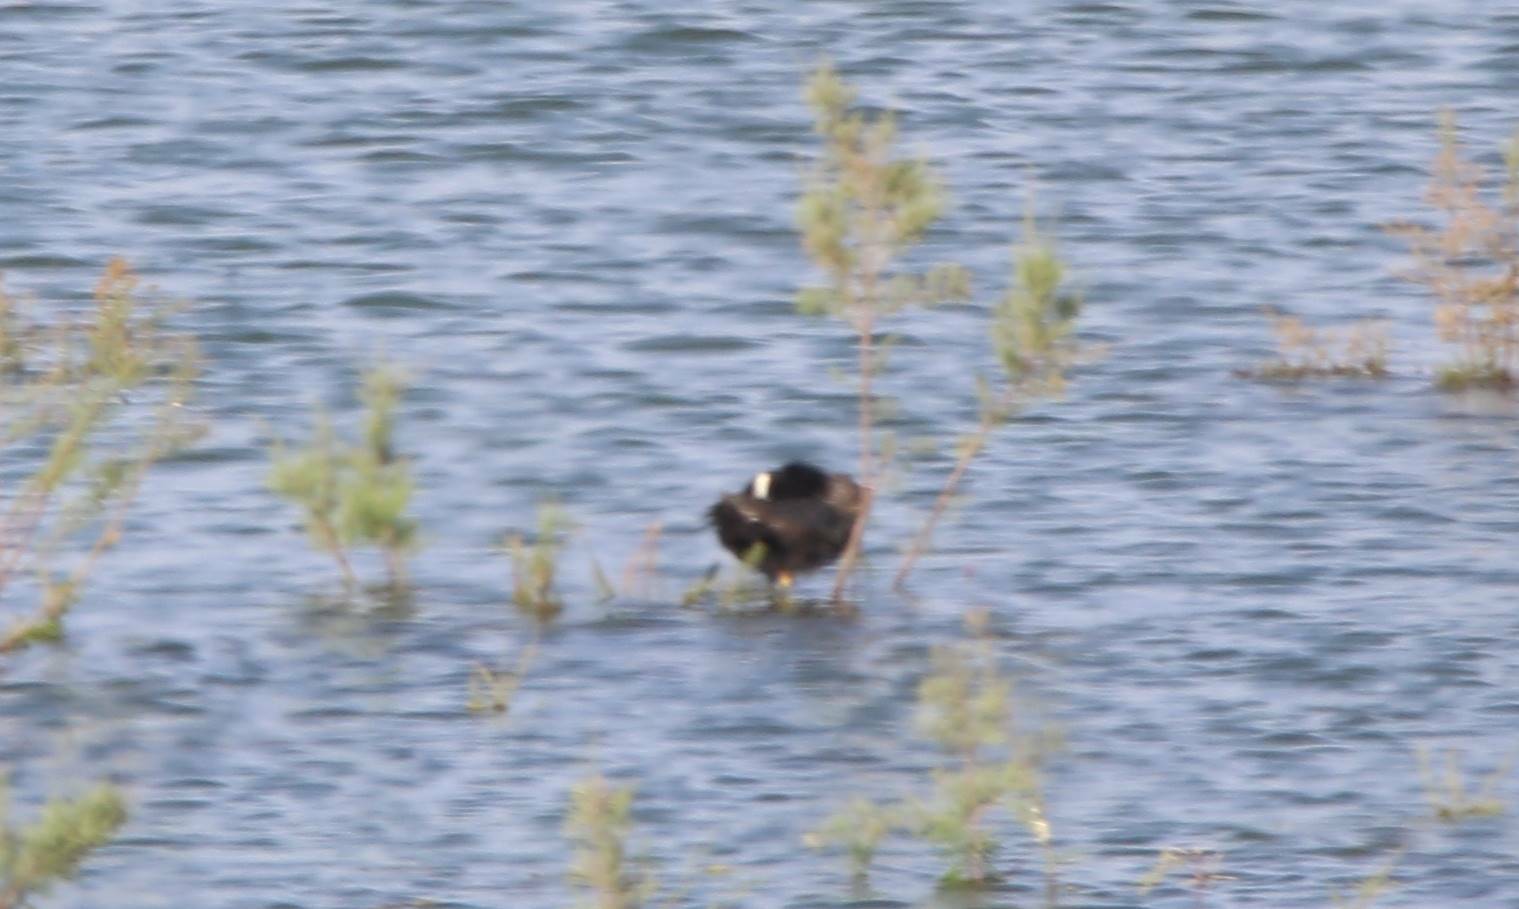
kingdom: Animalia
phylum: Chordata
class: Aves
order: Gruiformes
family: Rallidae
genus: Fulica
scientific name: Fulica atra
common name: Eurasian coot
